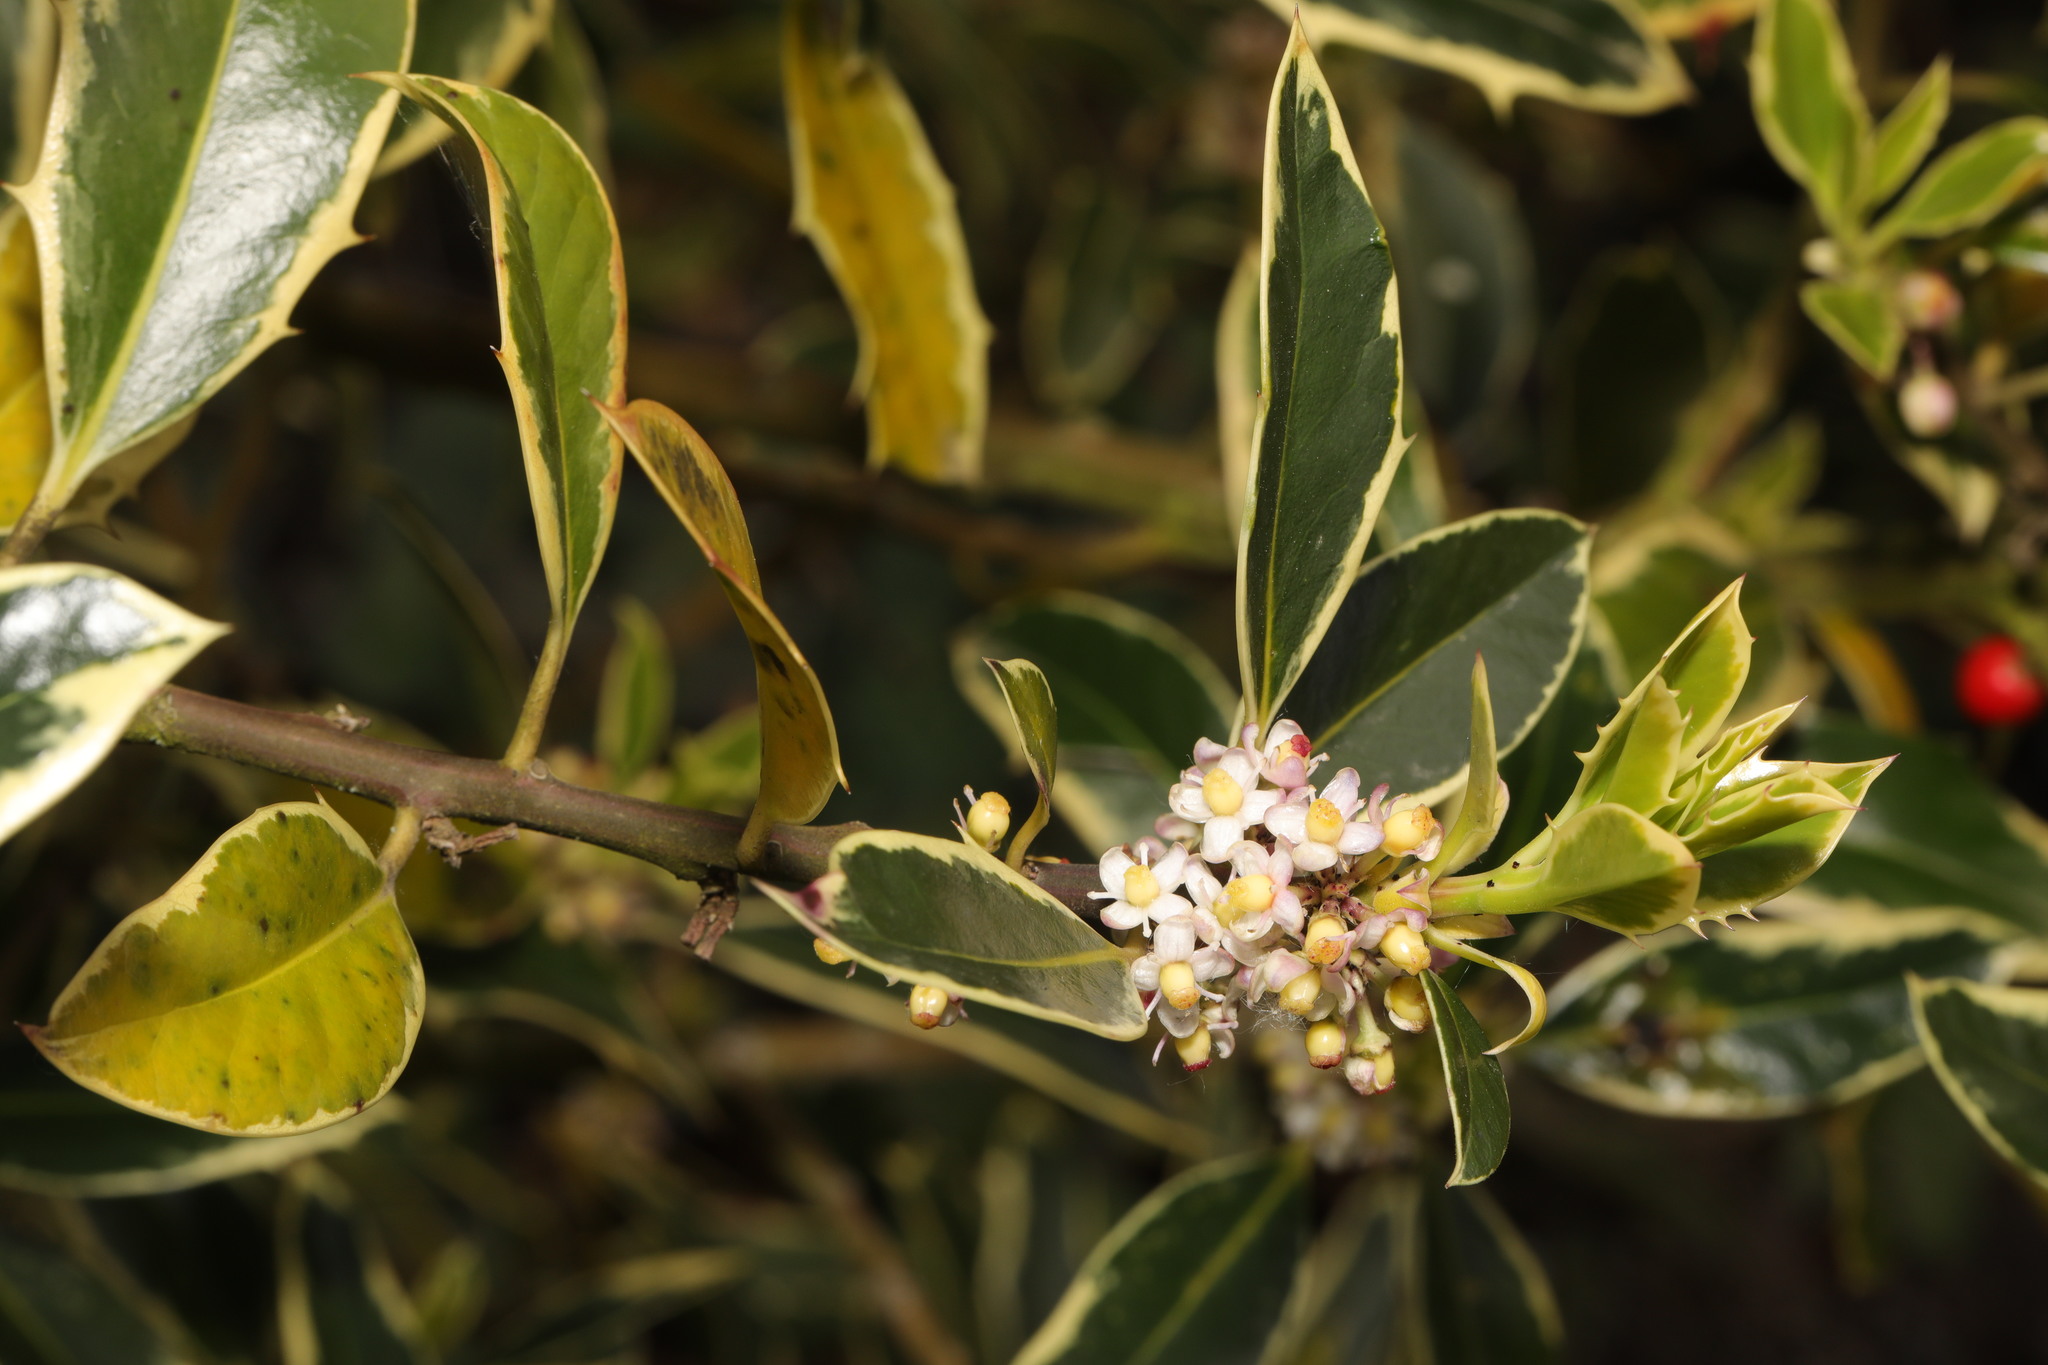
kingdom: Plantae
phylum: Tracheophyta
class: Magnoliopsida
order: Aquifoliales
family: Aquifoliaceae
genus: Ilex
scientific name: Ilex aquifolium
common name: English holly
